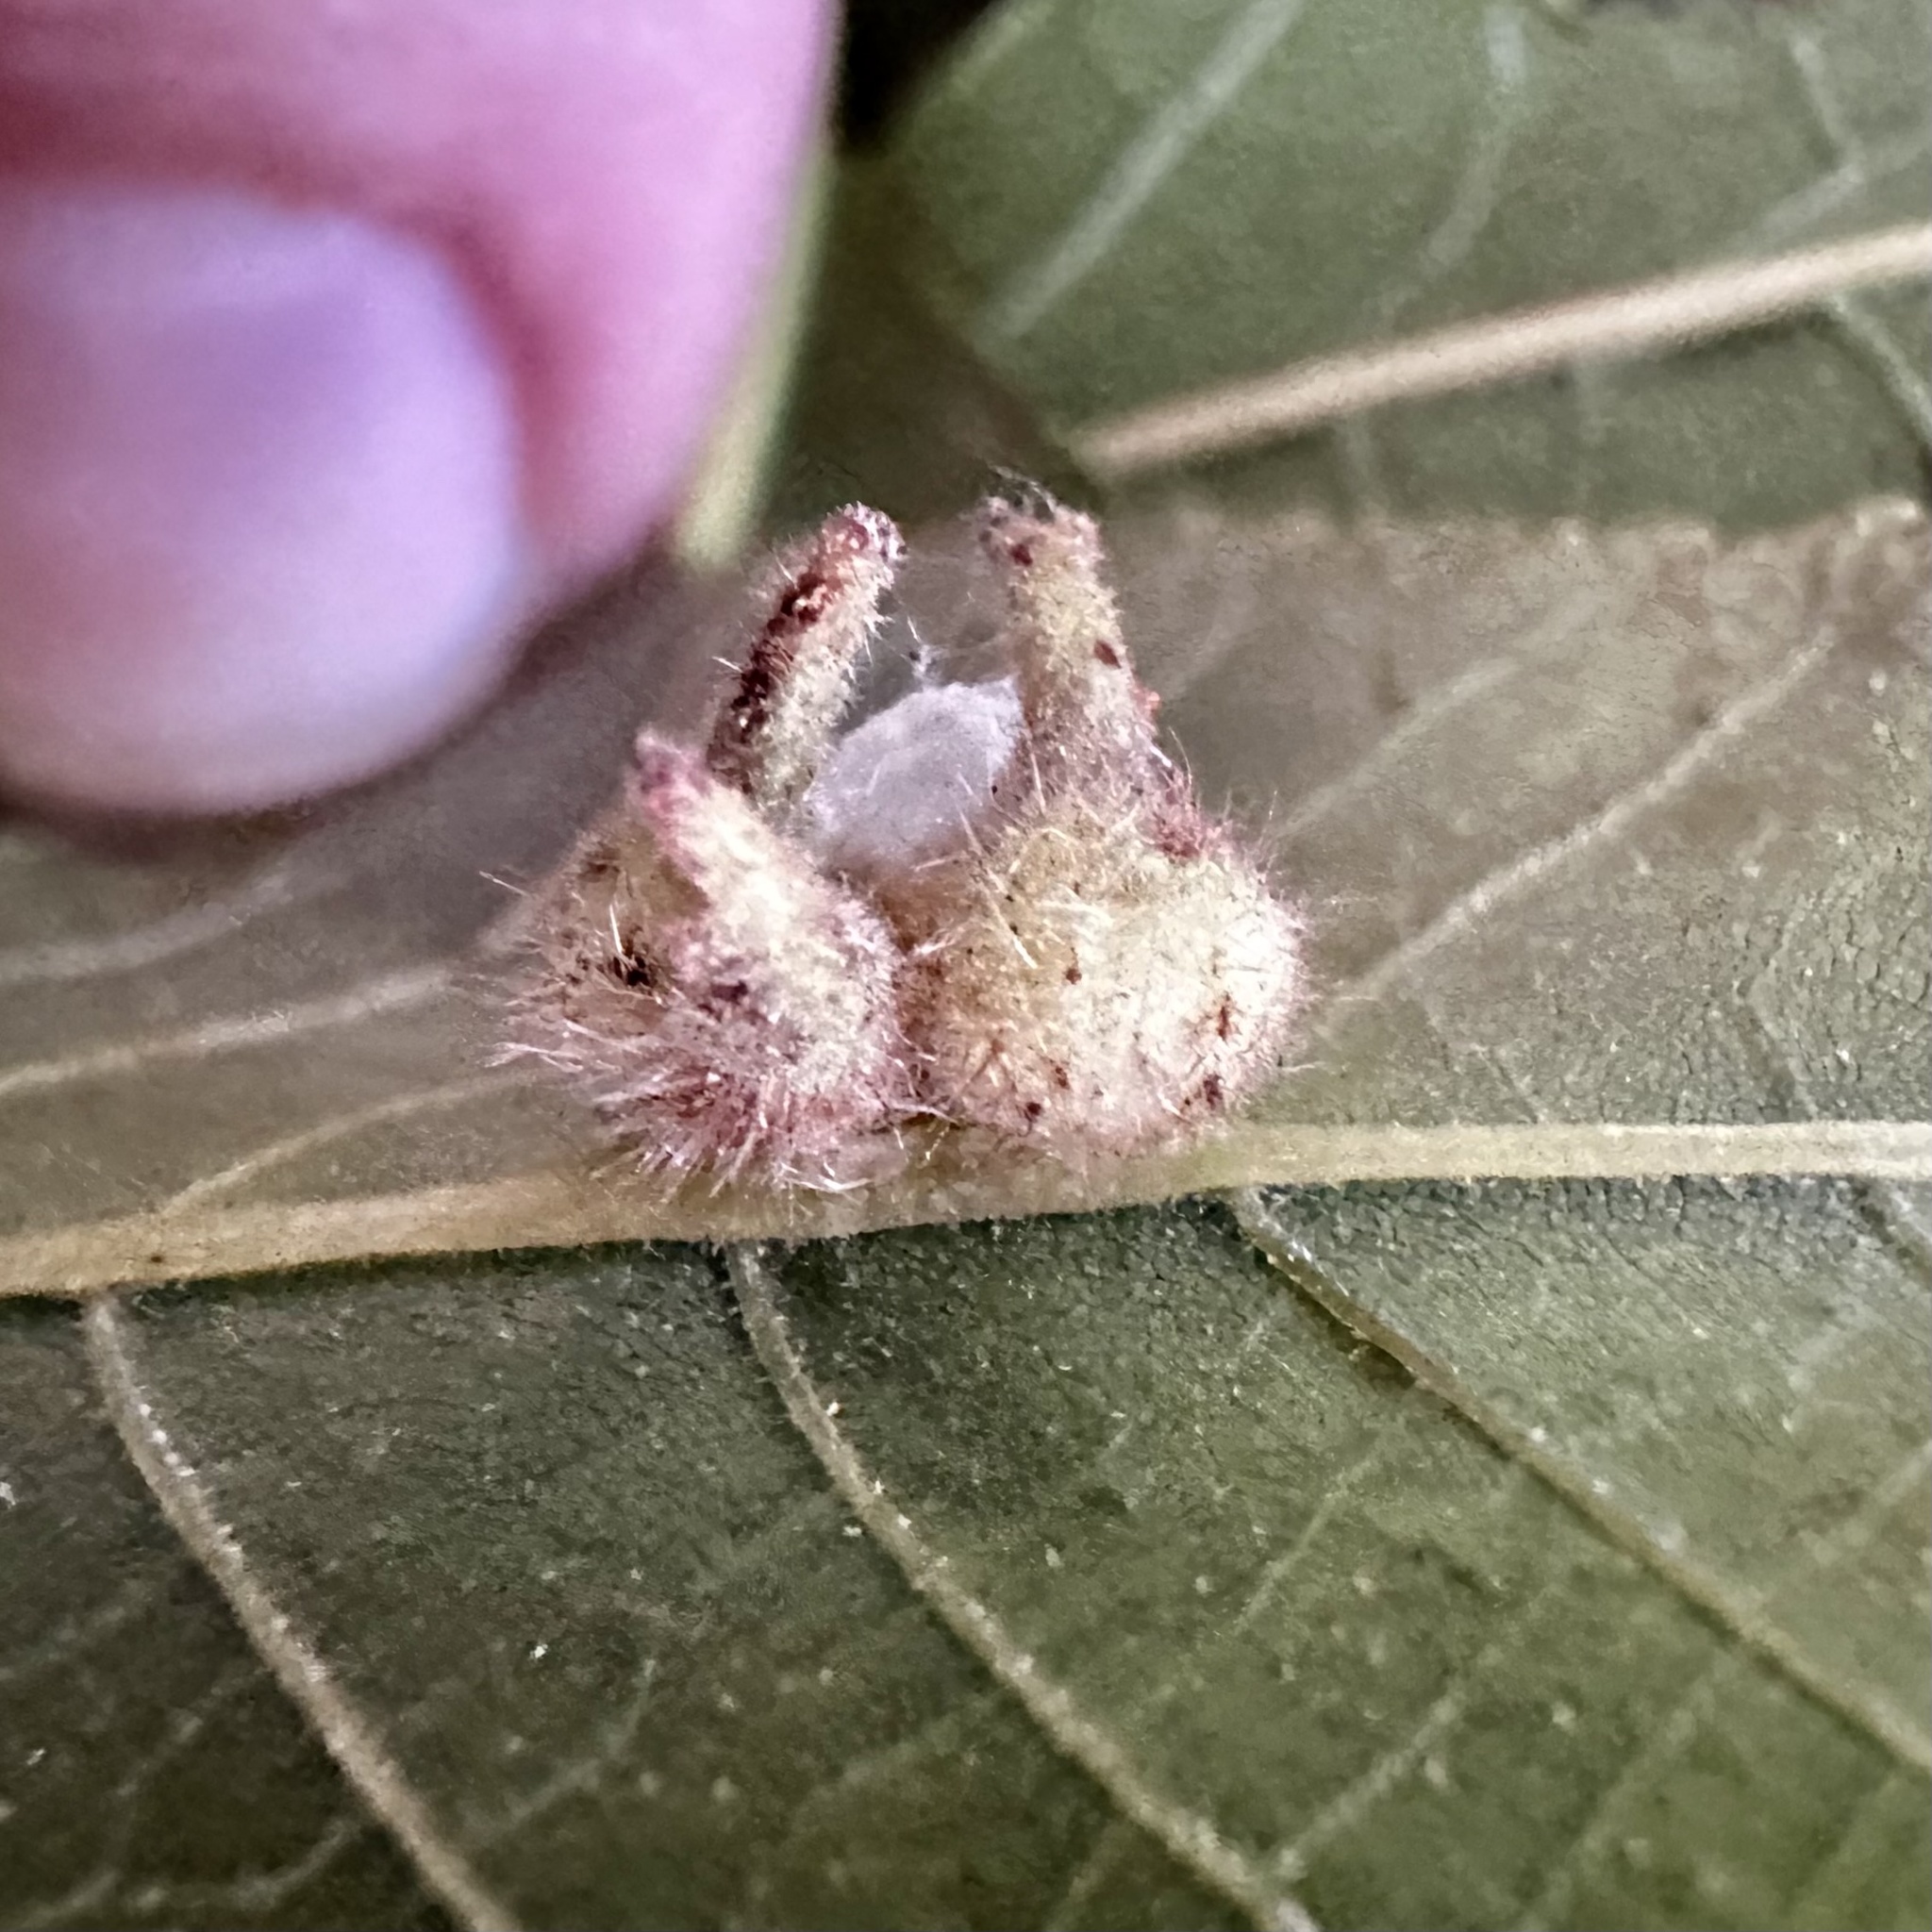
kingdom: Animalia
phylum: Arthropoda
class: Insecta
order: Diptera
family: Cecidomyiidae
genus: Caryomyia
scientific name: Caryomyia ansericollum
